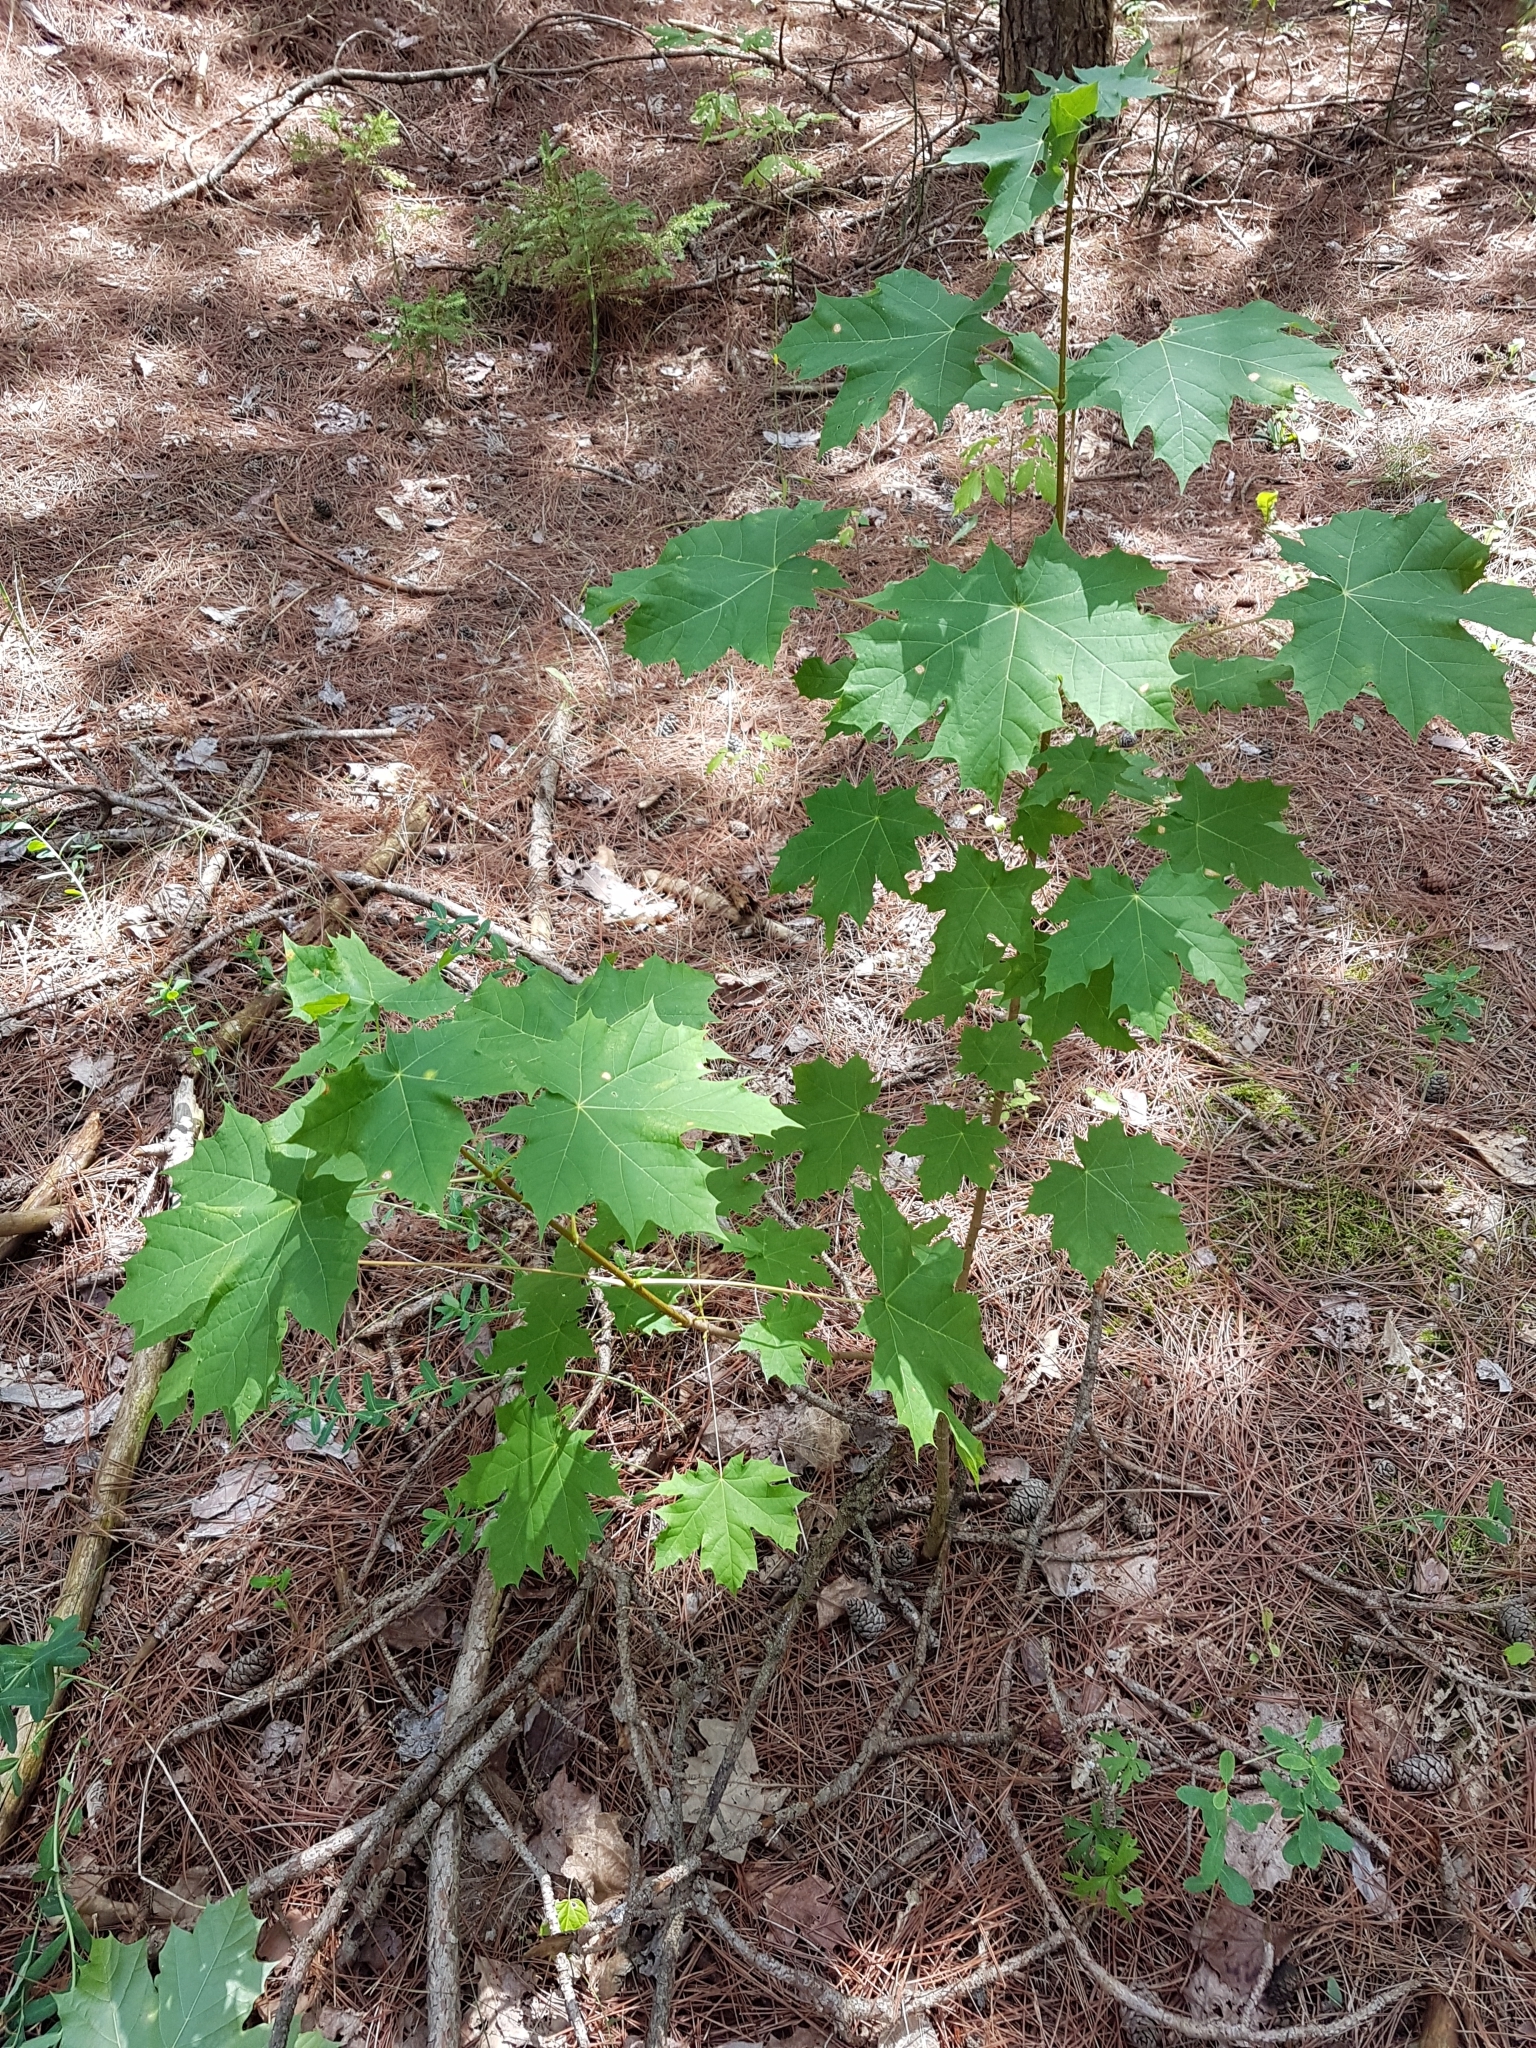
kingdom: Plantae
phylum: Tracheophyta
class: Magnoliopsida
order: Sapindales
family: Sapindaceae
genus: Acer
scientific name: Acer platanoides
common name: Norway maple
